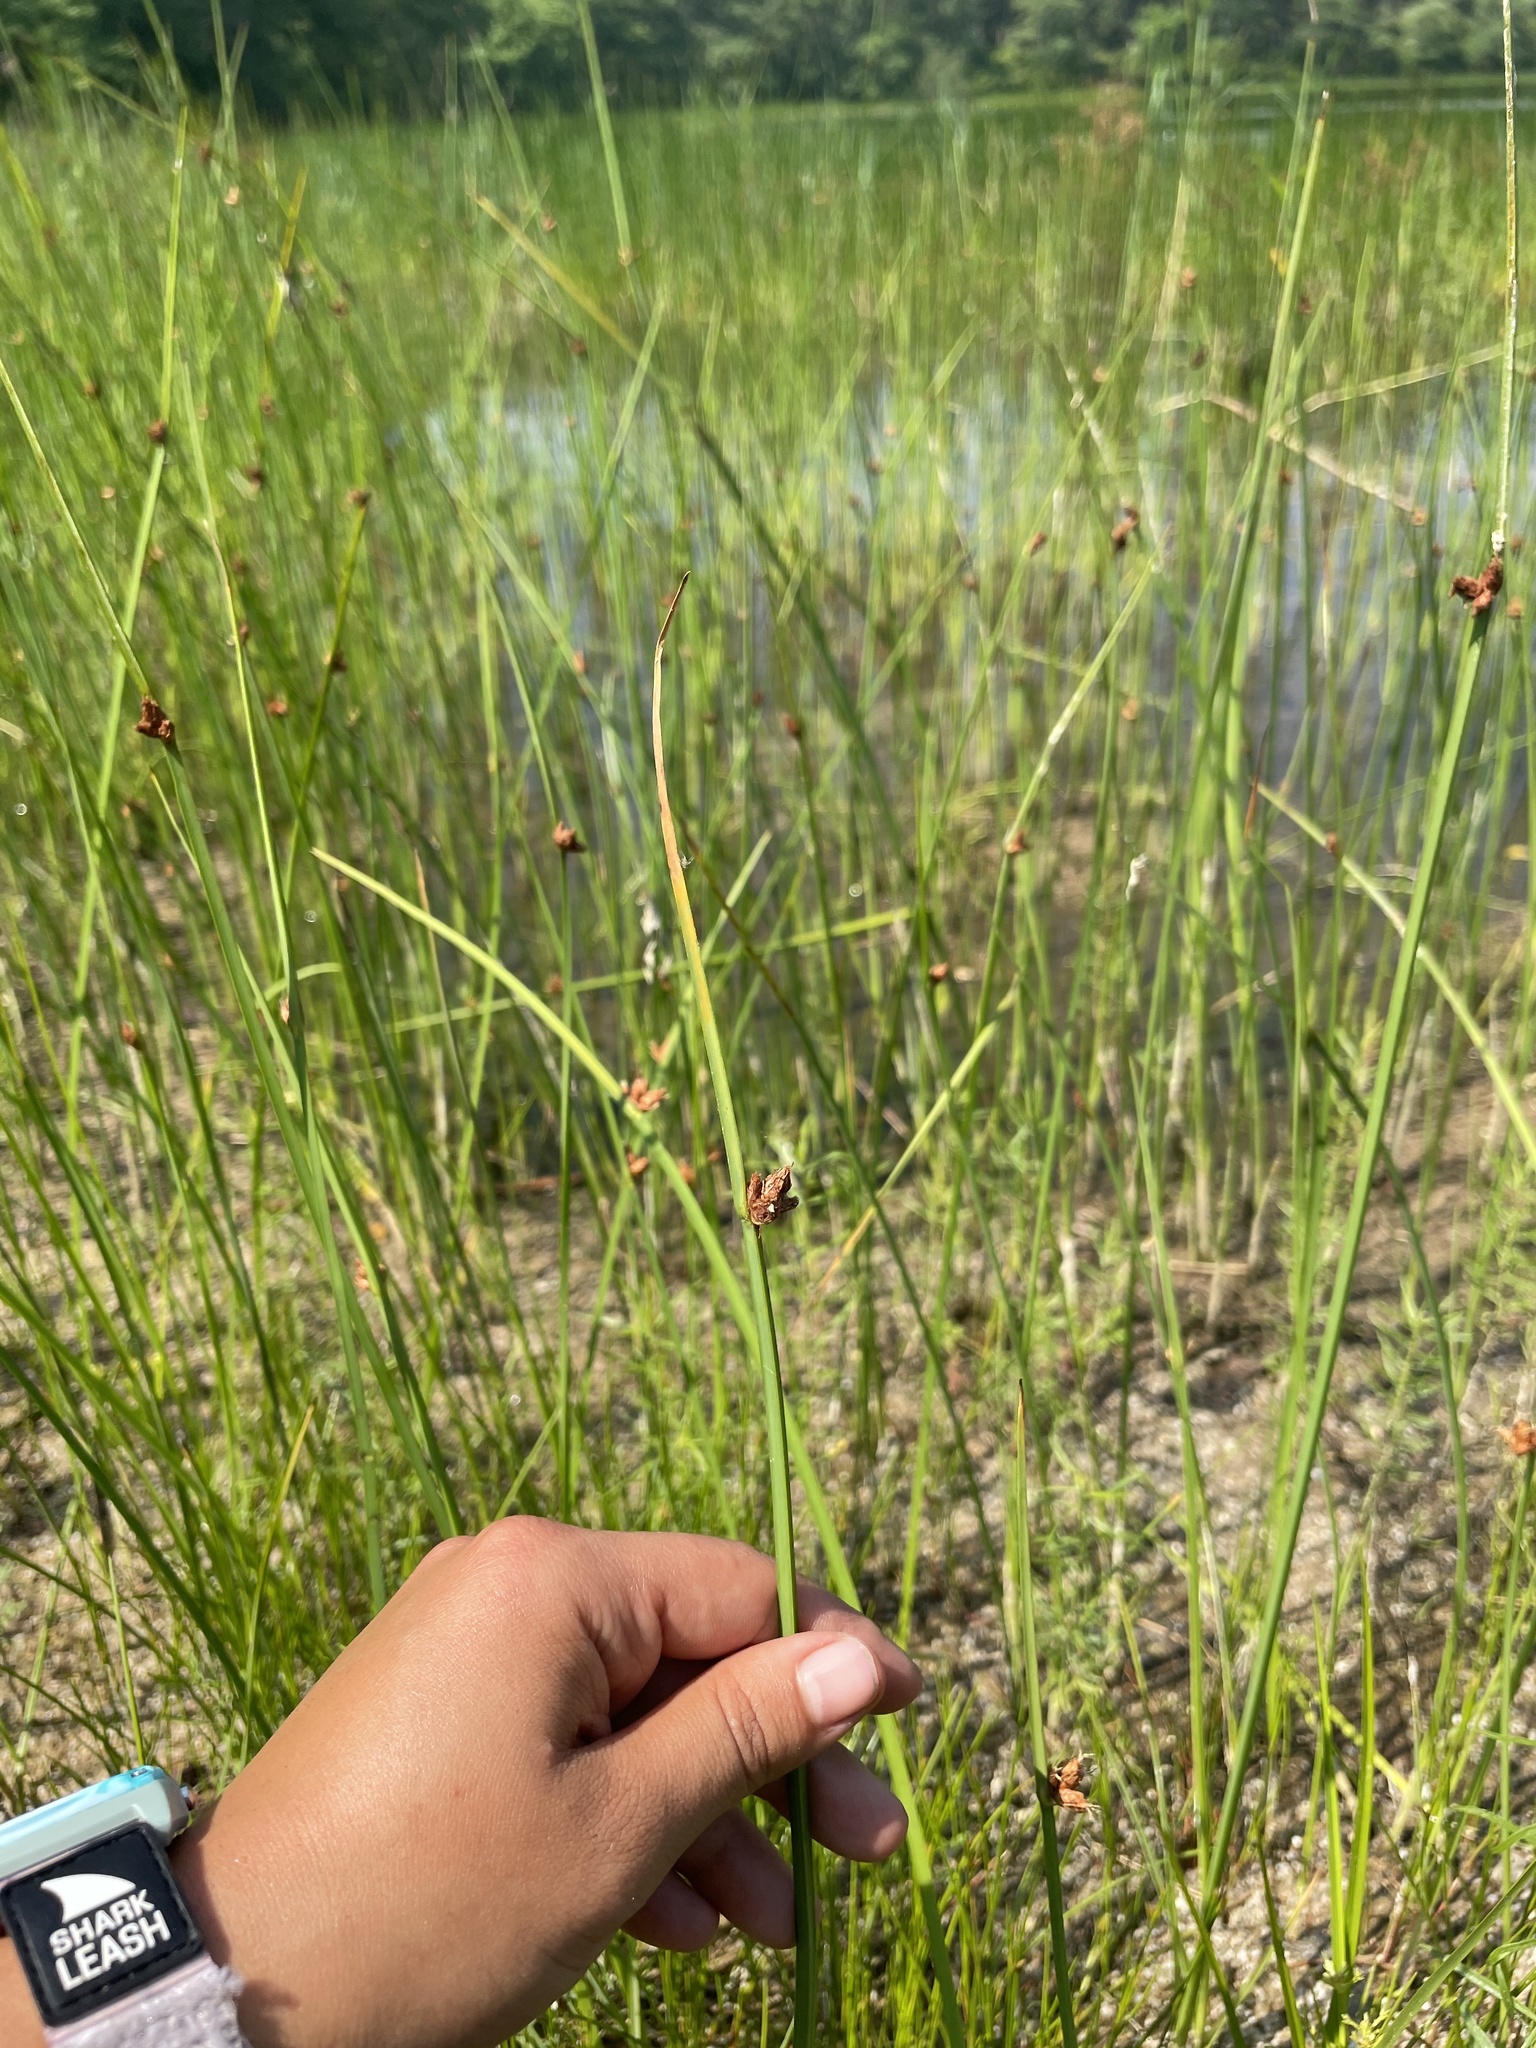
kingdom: Plantae
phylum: Tracheophyta
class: Liliopsida
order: Poales
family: Cyperaceae
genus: Schoenoplectus
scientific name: Schoenoplectus pungens
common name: Sharp club-rush
